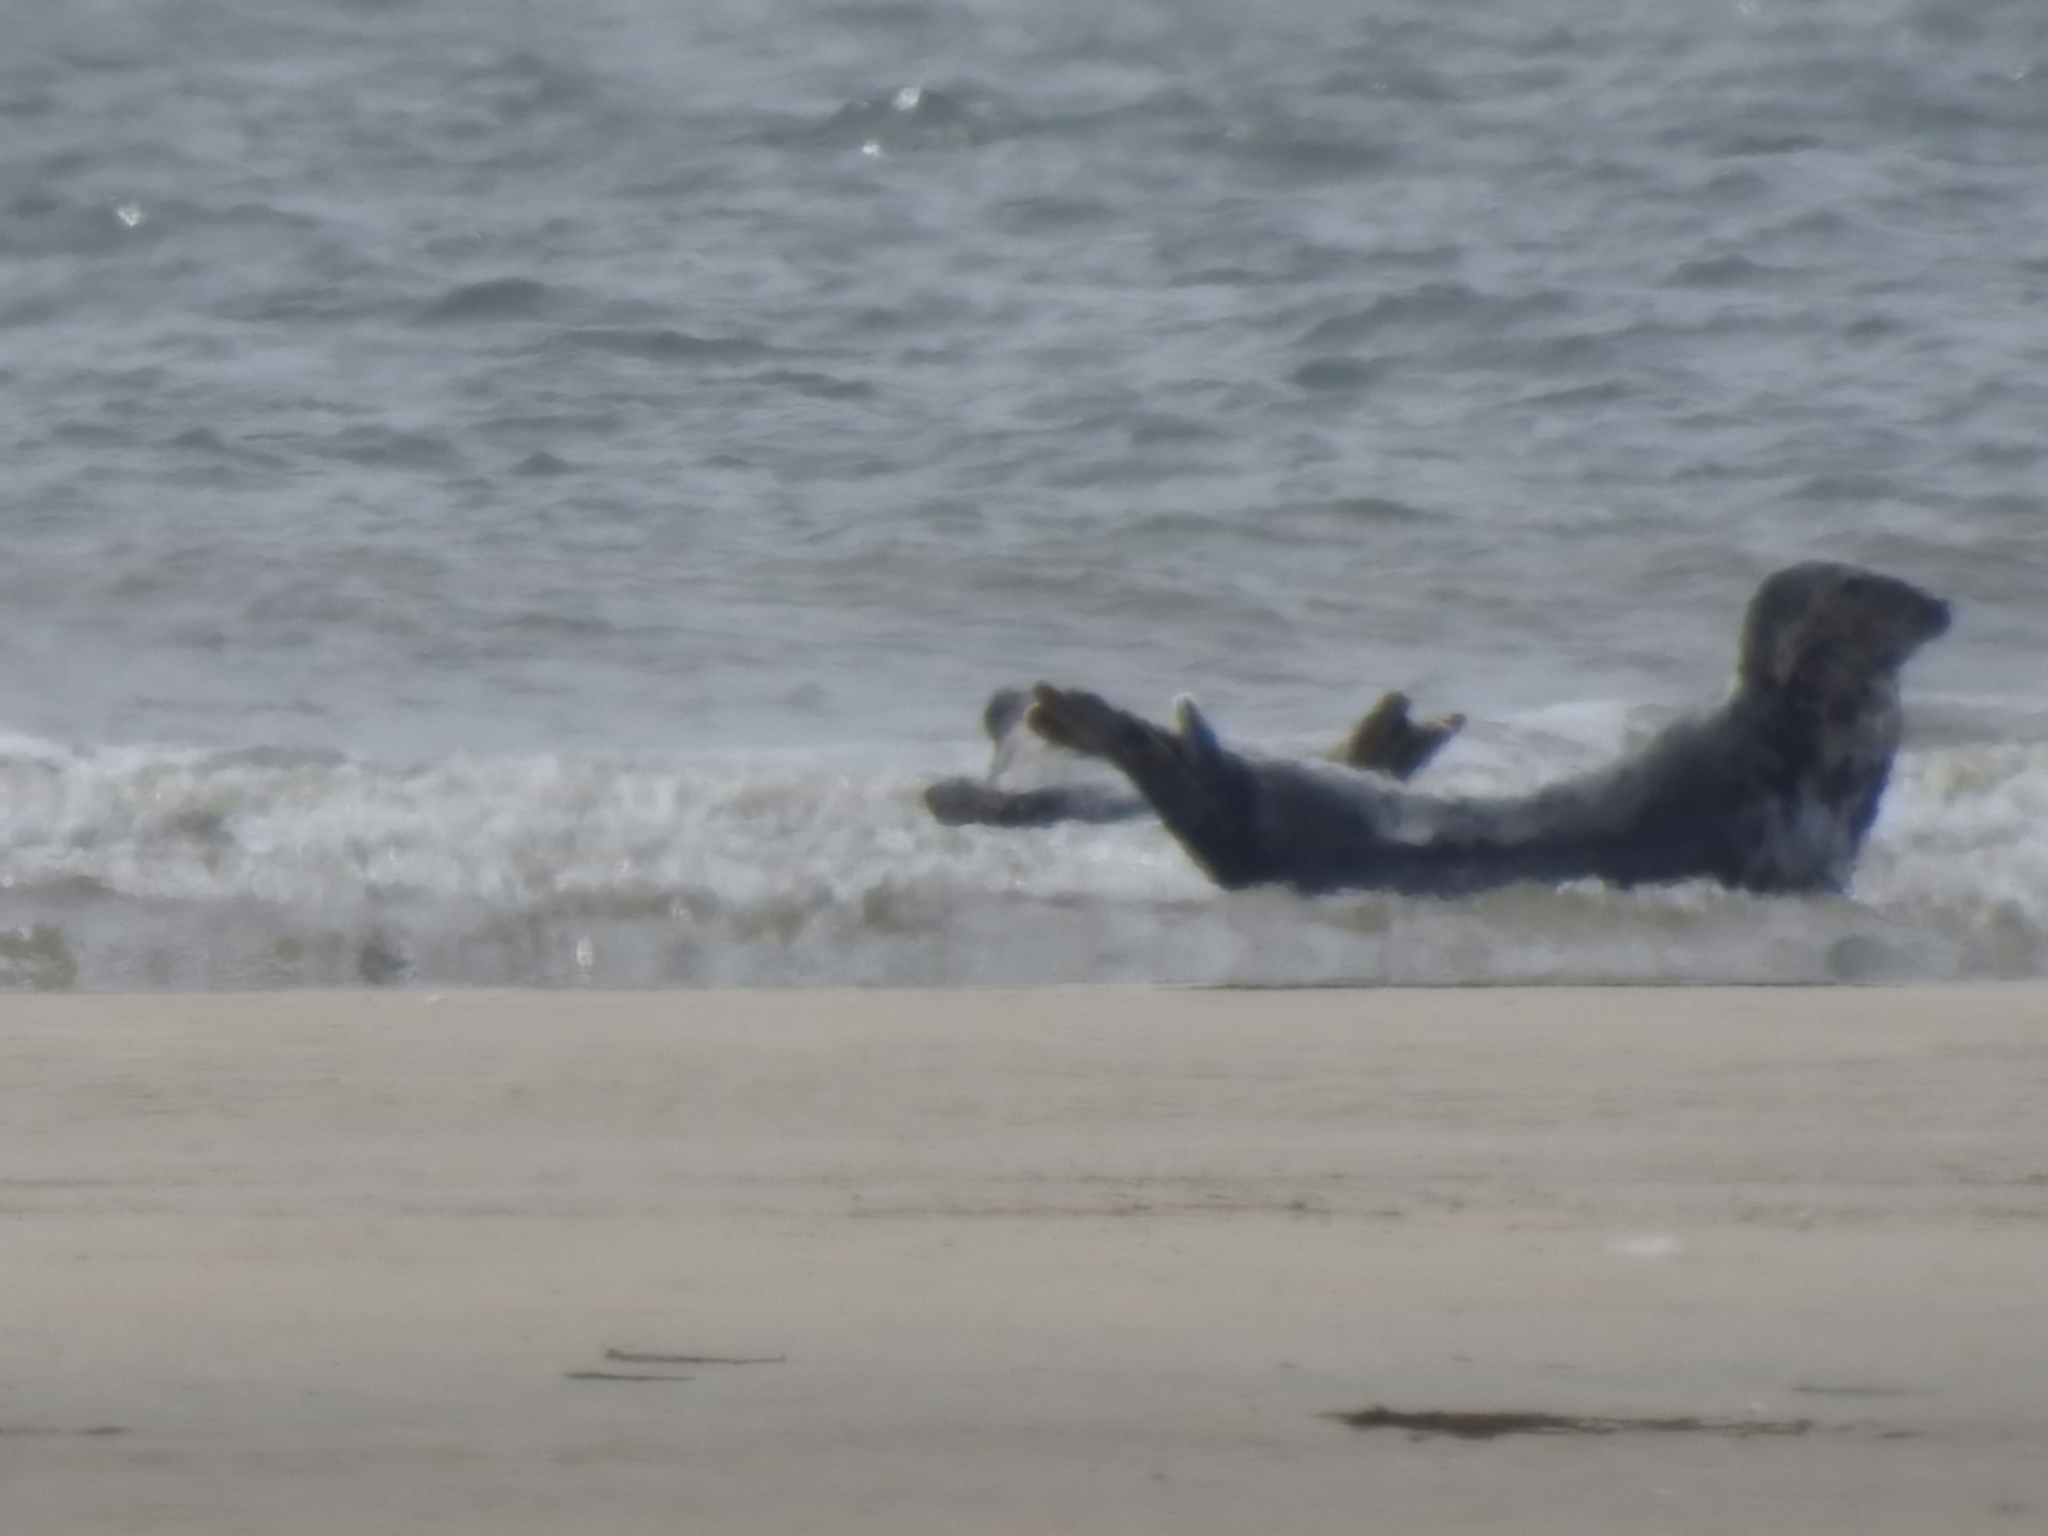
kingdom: Animalia
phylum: Chordata
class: Mammalia
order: Carnivora
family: Phocidae
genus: Halichoerus
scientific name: Halichoerus grypus
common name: Grey seal
